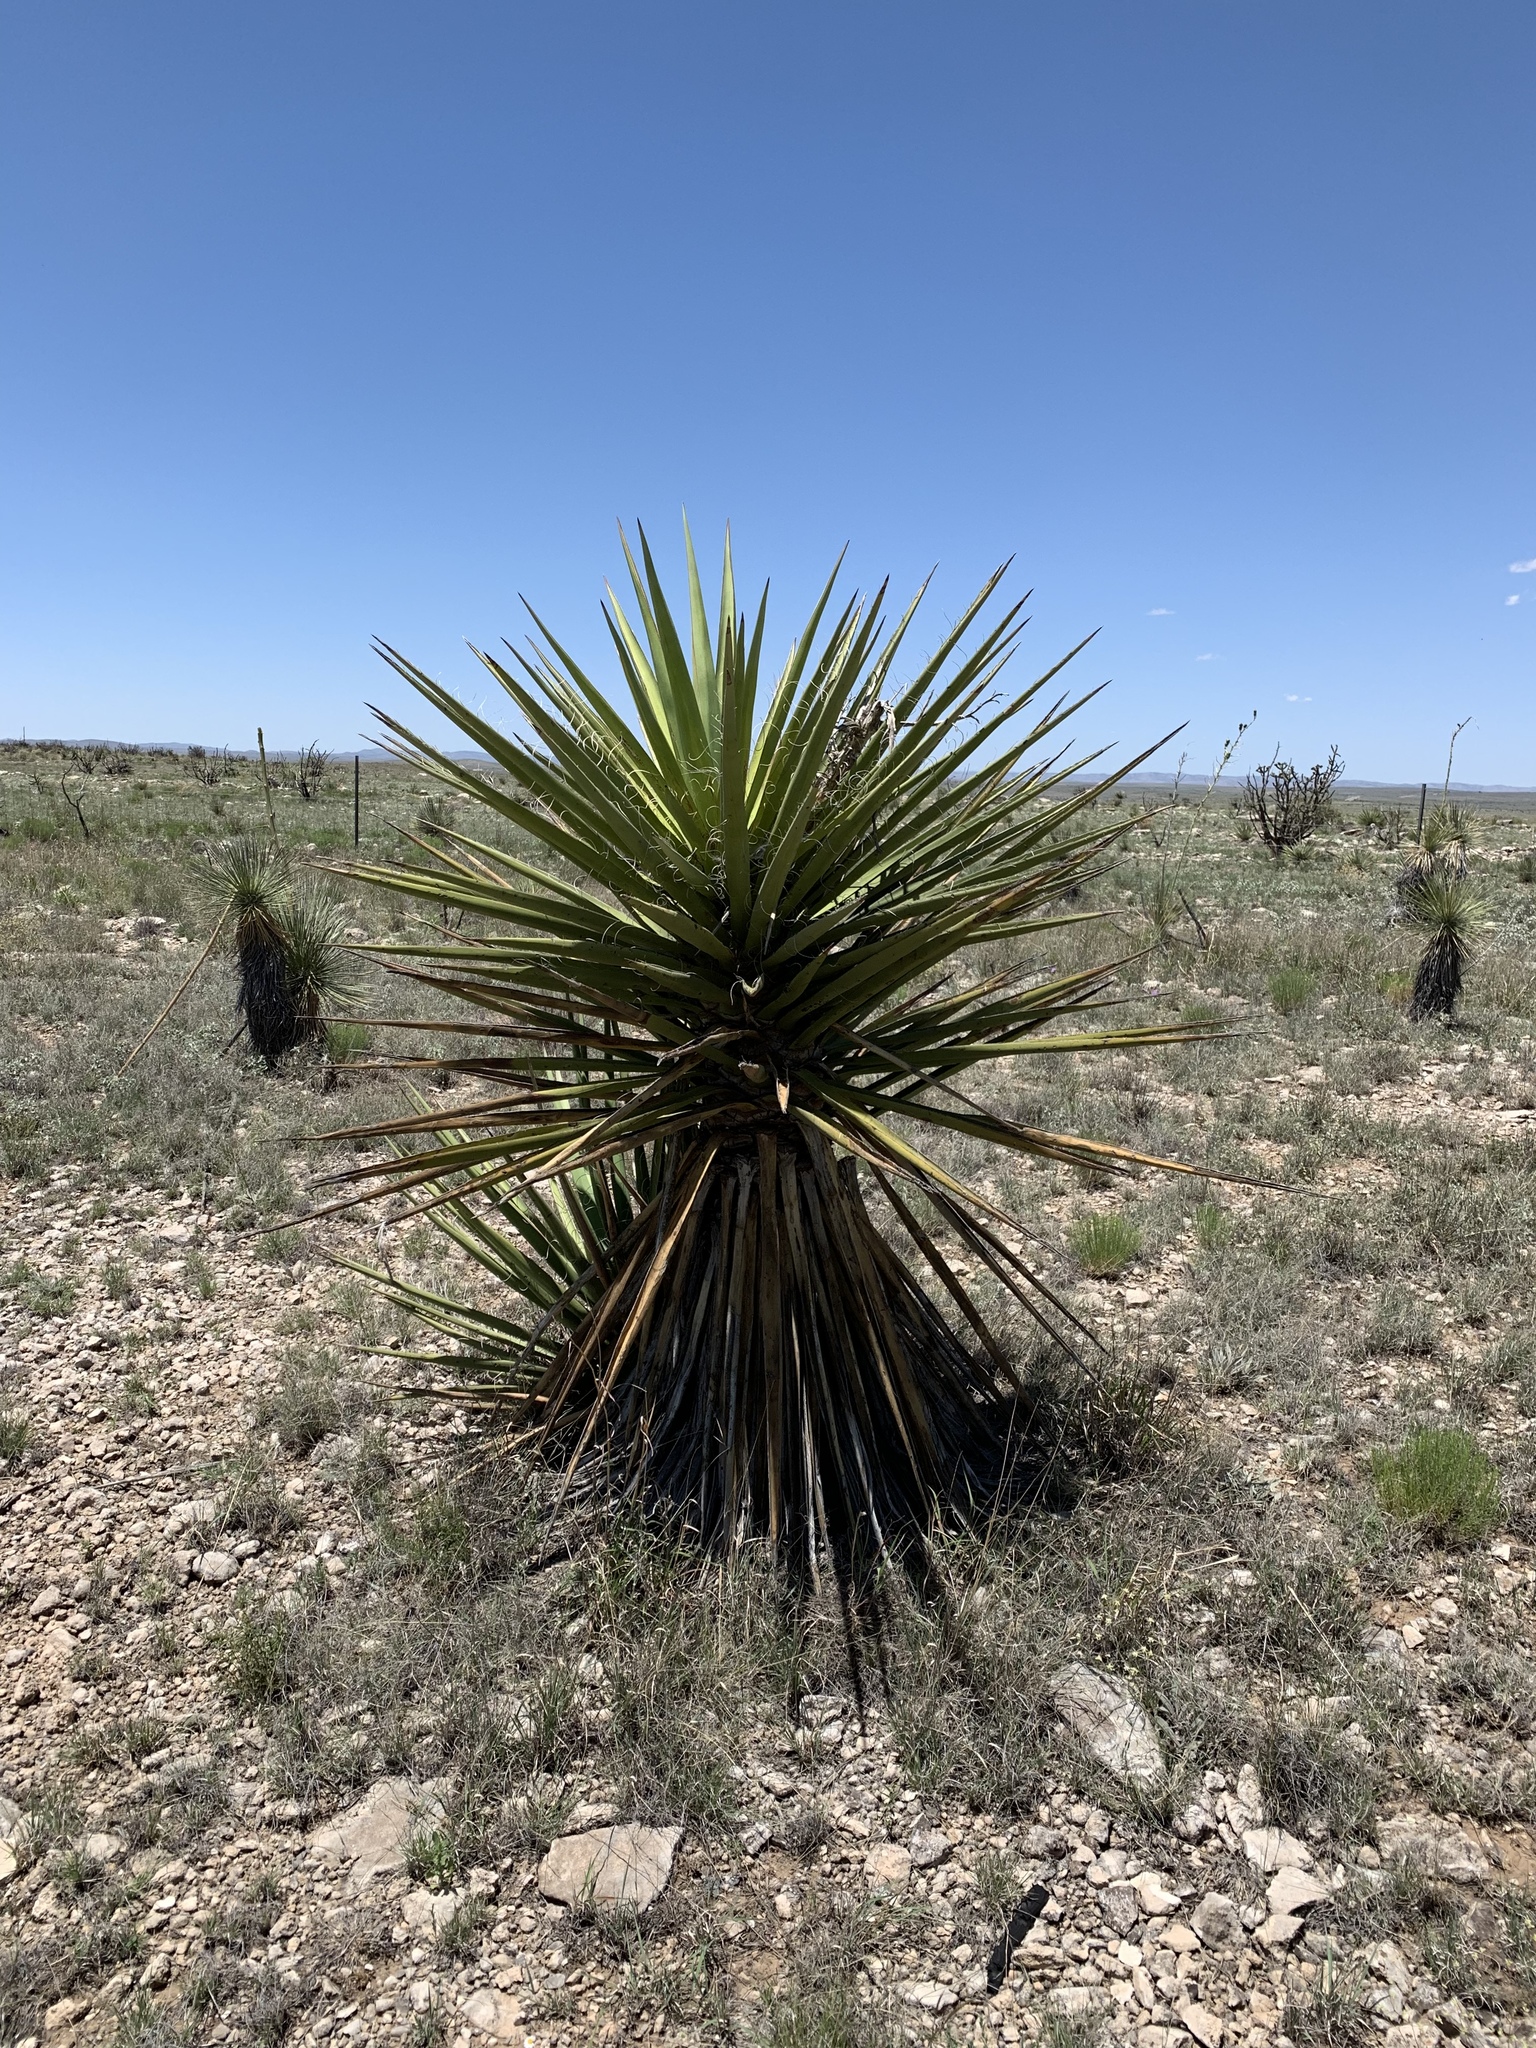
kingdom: Plantae
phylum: Tracheophyta
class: Liliopsida
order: Asparagales
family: Asparagaceae
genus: Yucca
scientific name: Yucca treculiana
